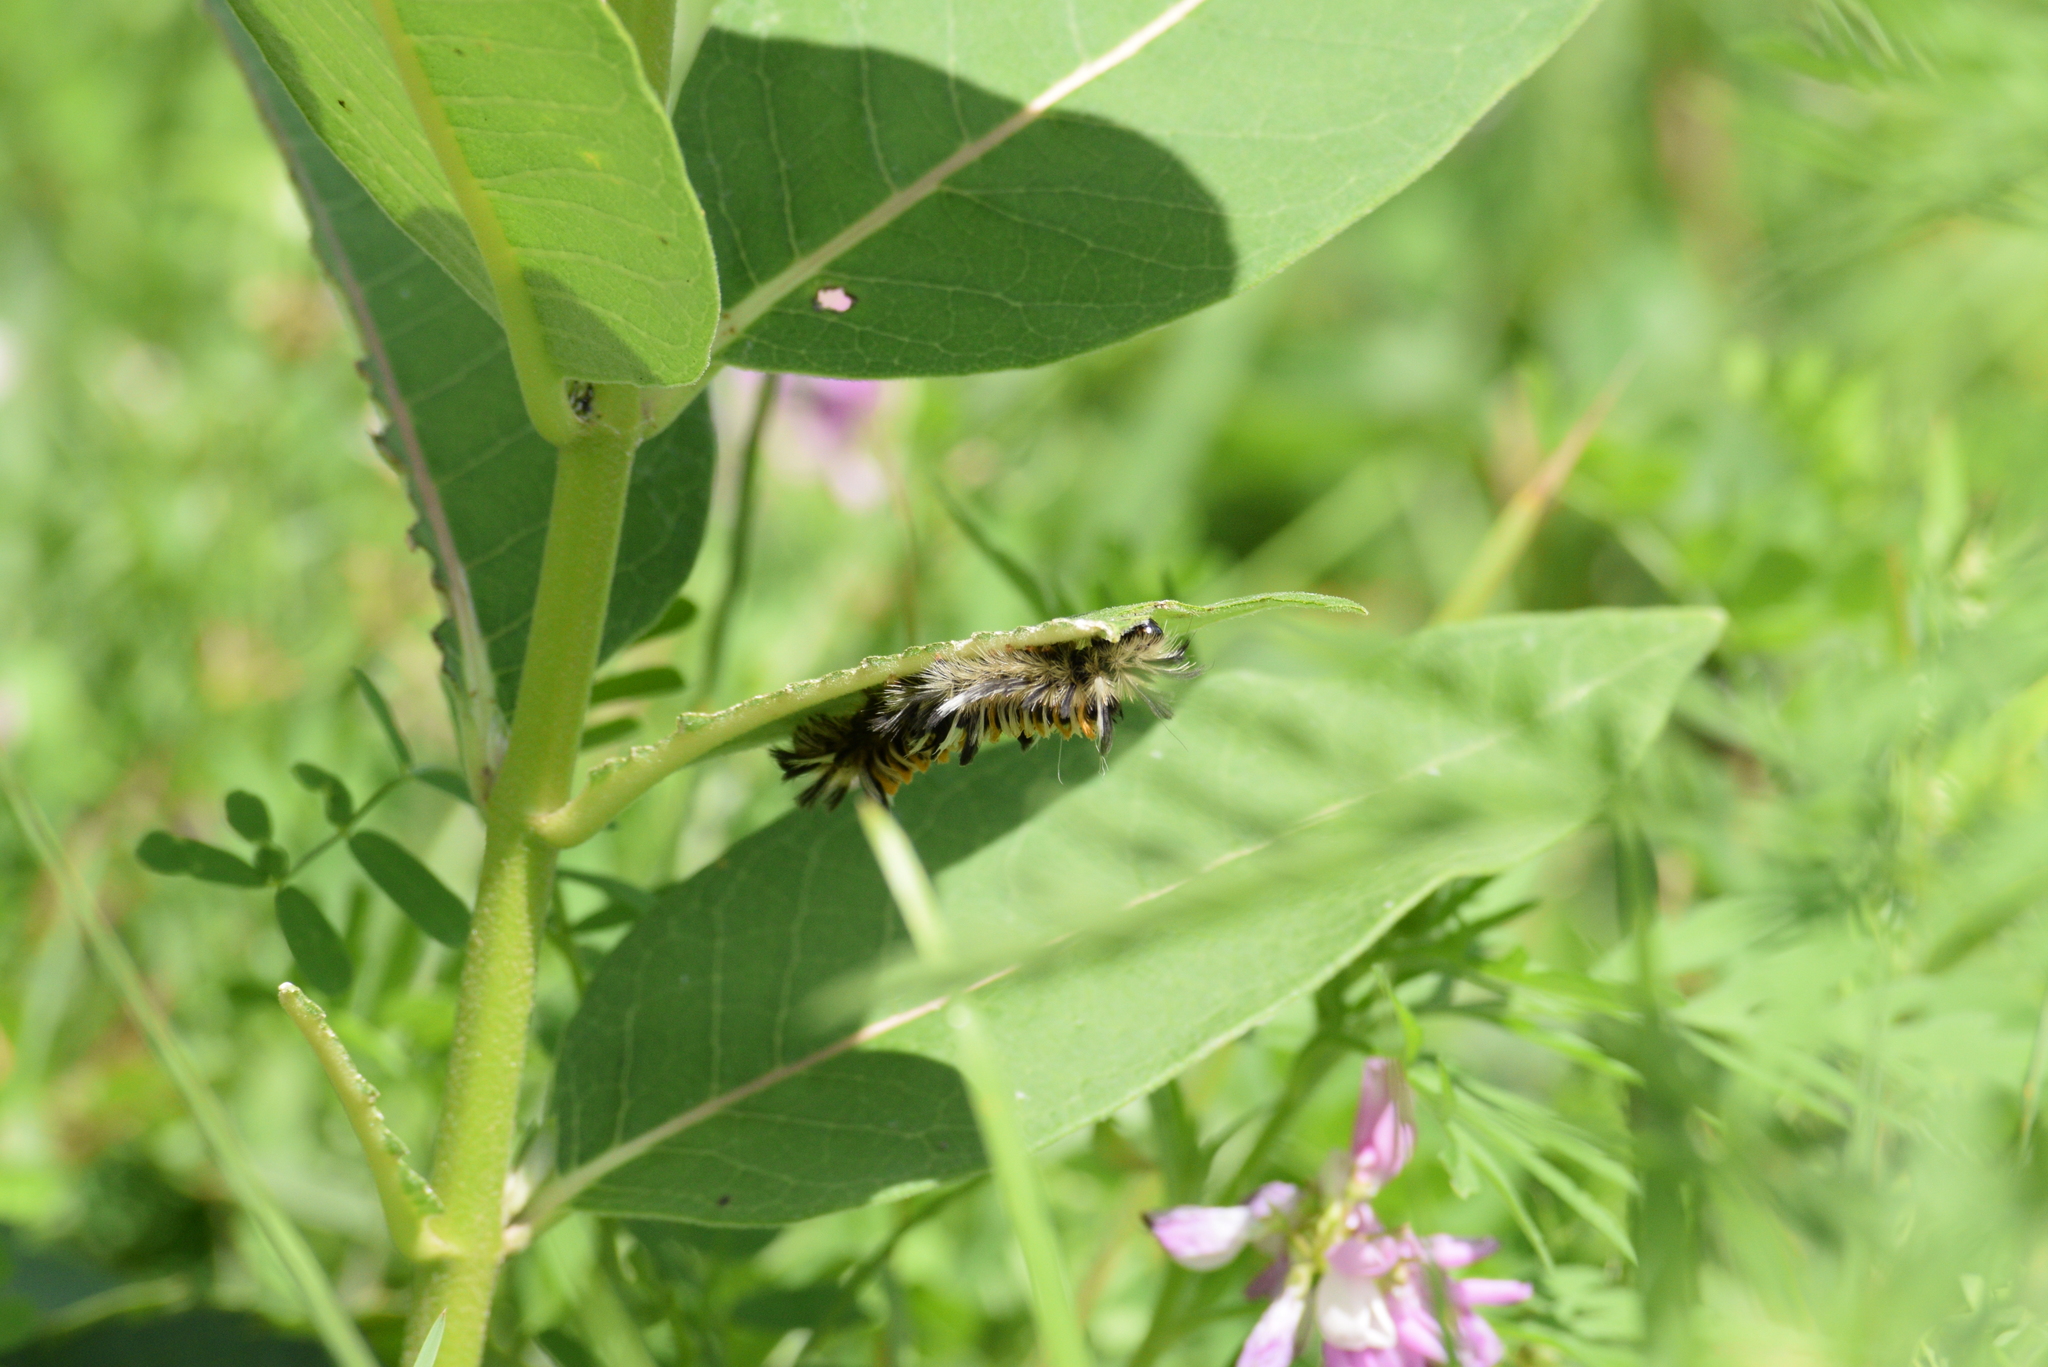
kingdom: Animalia
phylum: Arthropoda
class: Insecta
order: Lepidoptera
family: Erebidae
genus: Euchaetes
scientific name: Euchaetes egle
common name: Milkweed tussock moth
